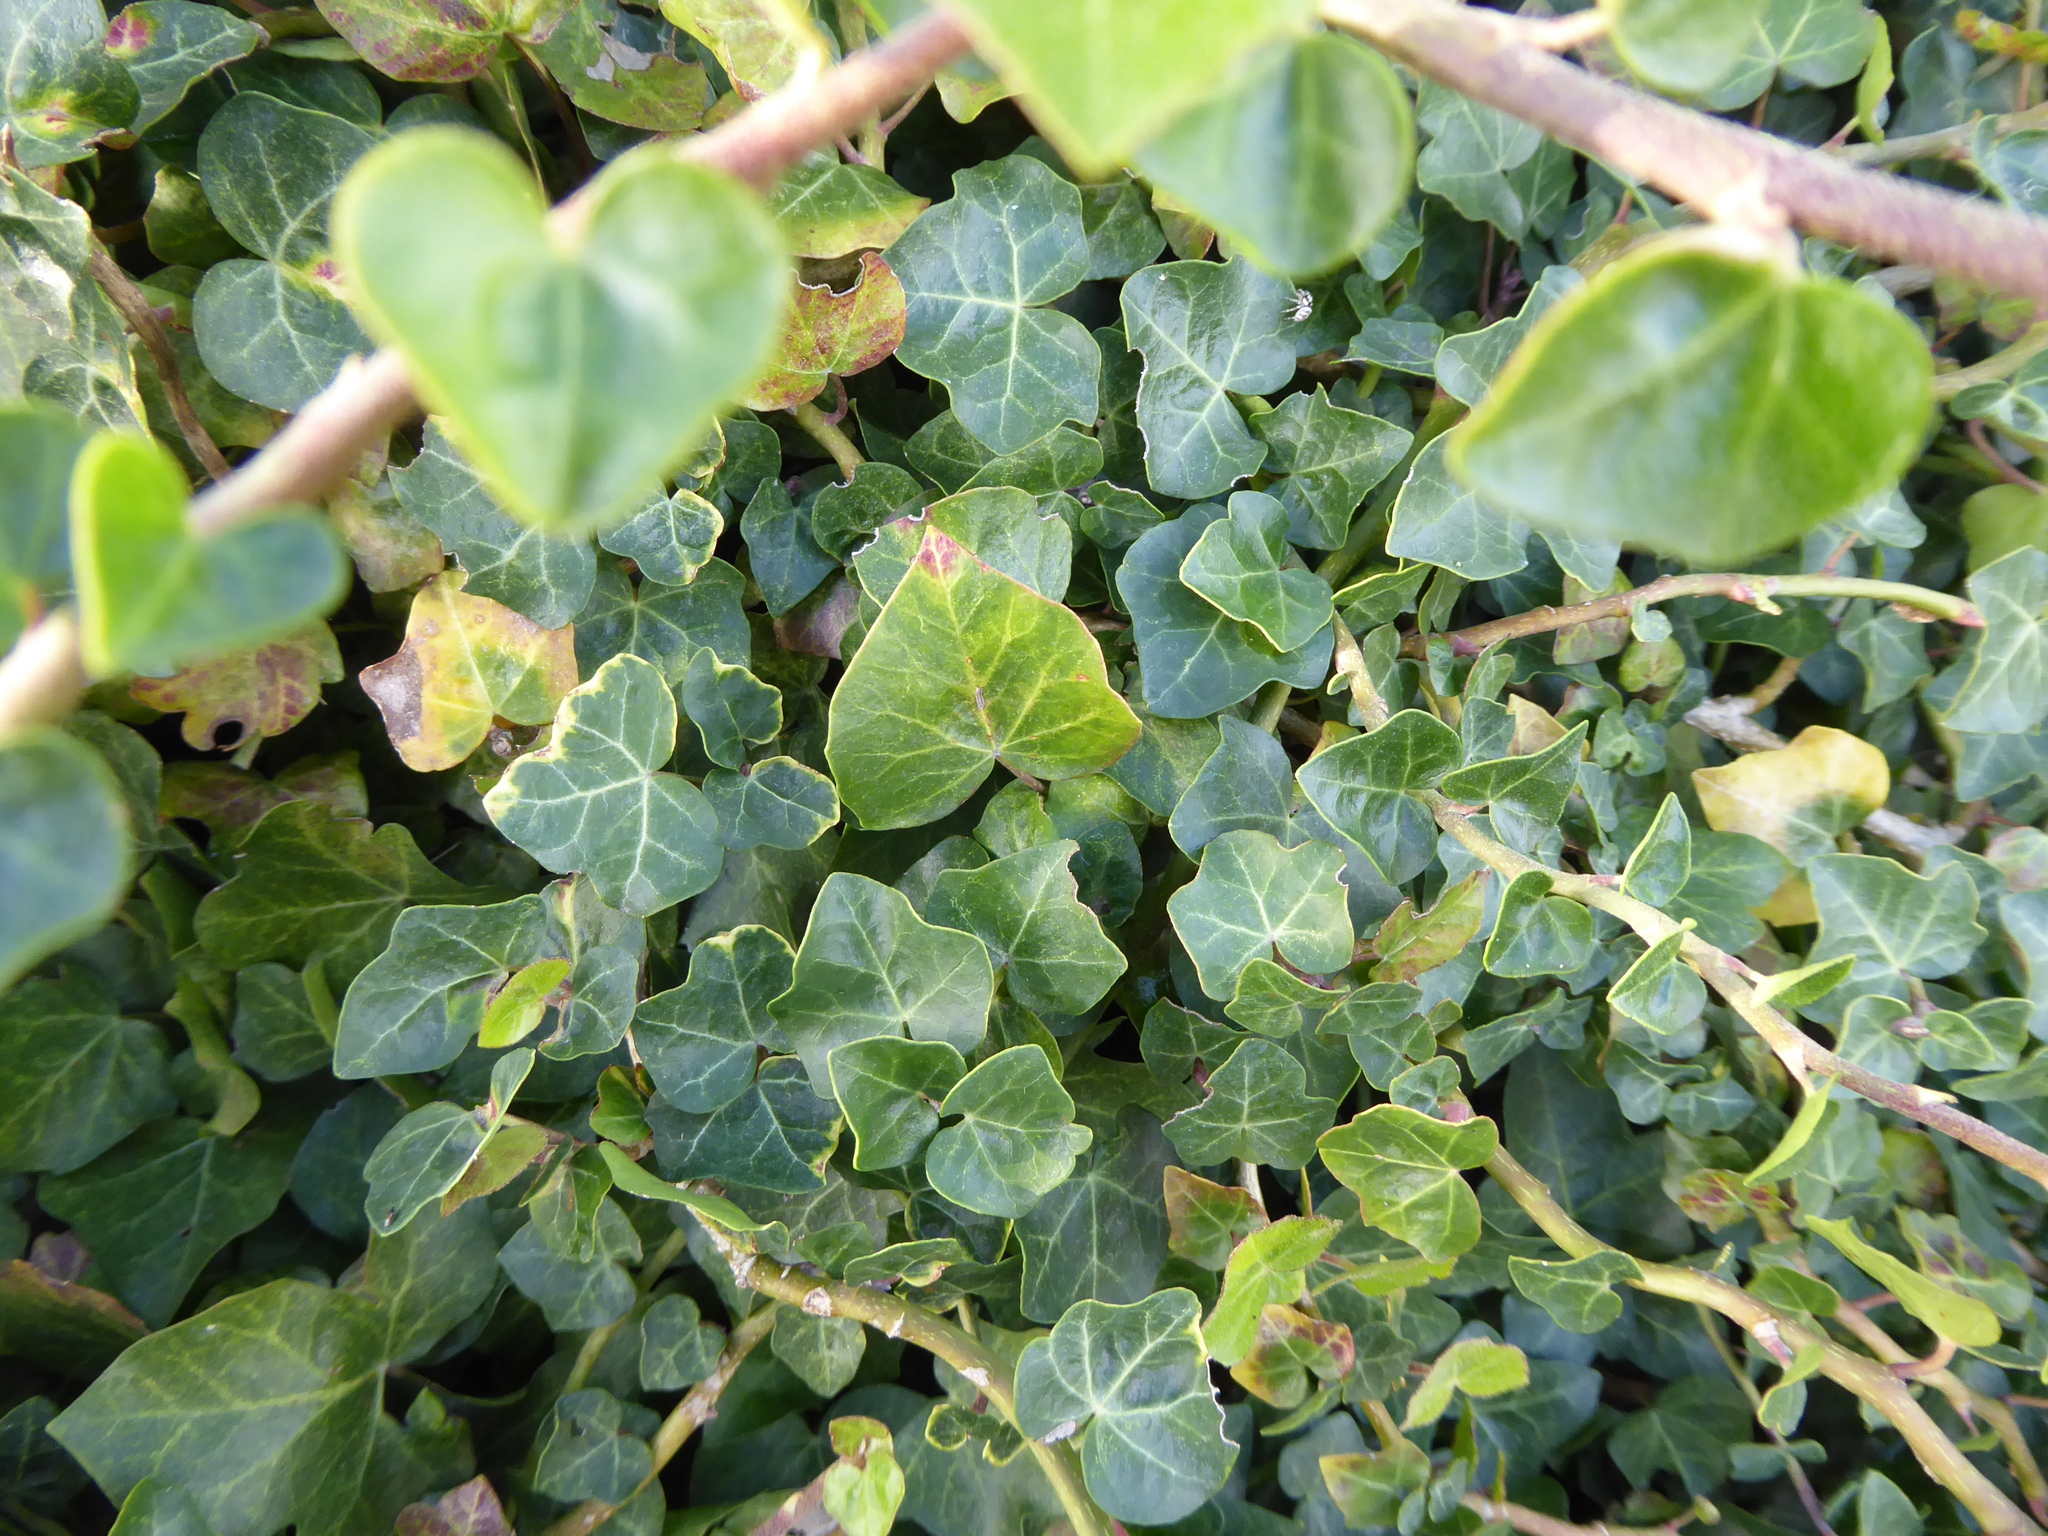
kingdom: Plantae
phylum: Tracheophyta
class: Magnoliopsida
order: Apiales
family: Araliaceae
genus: Hedera
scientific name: Hedera helix
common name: Ivy
